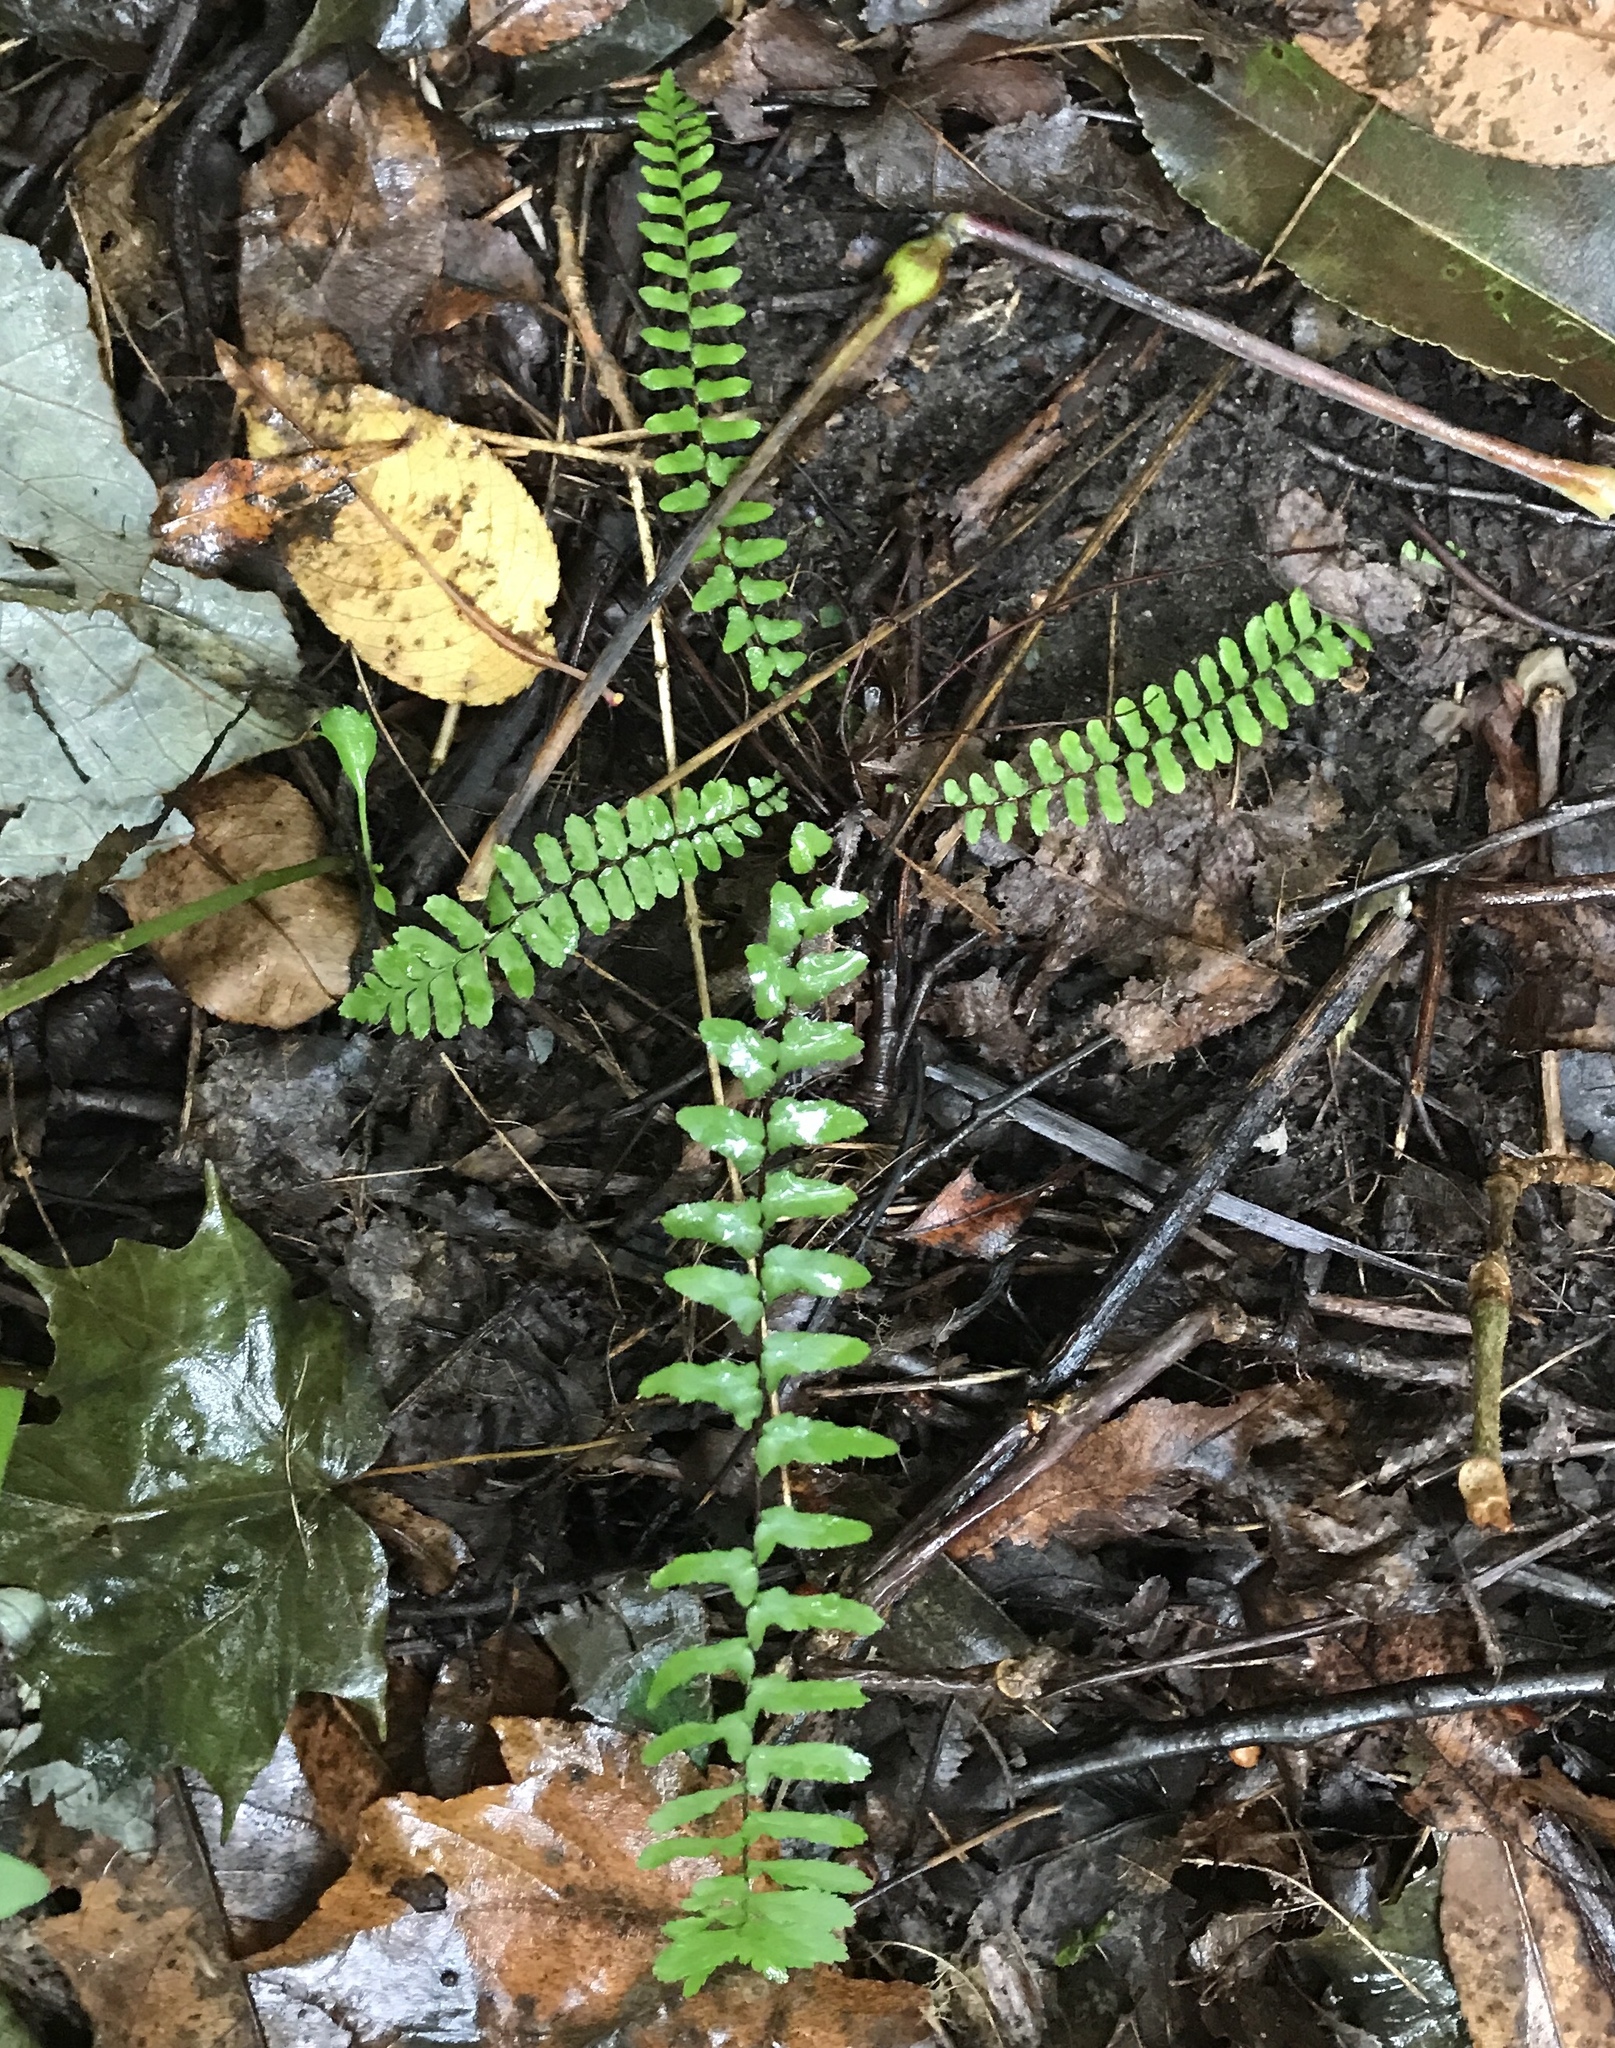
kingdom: Plantae
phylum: Tracheophyta
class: Polypodiopsida
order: Polypodiales
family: Aspleniaceae
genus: Asplenium
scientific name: Asplenium platyneuron
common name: Ebony spleenwort
